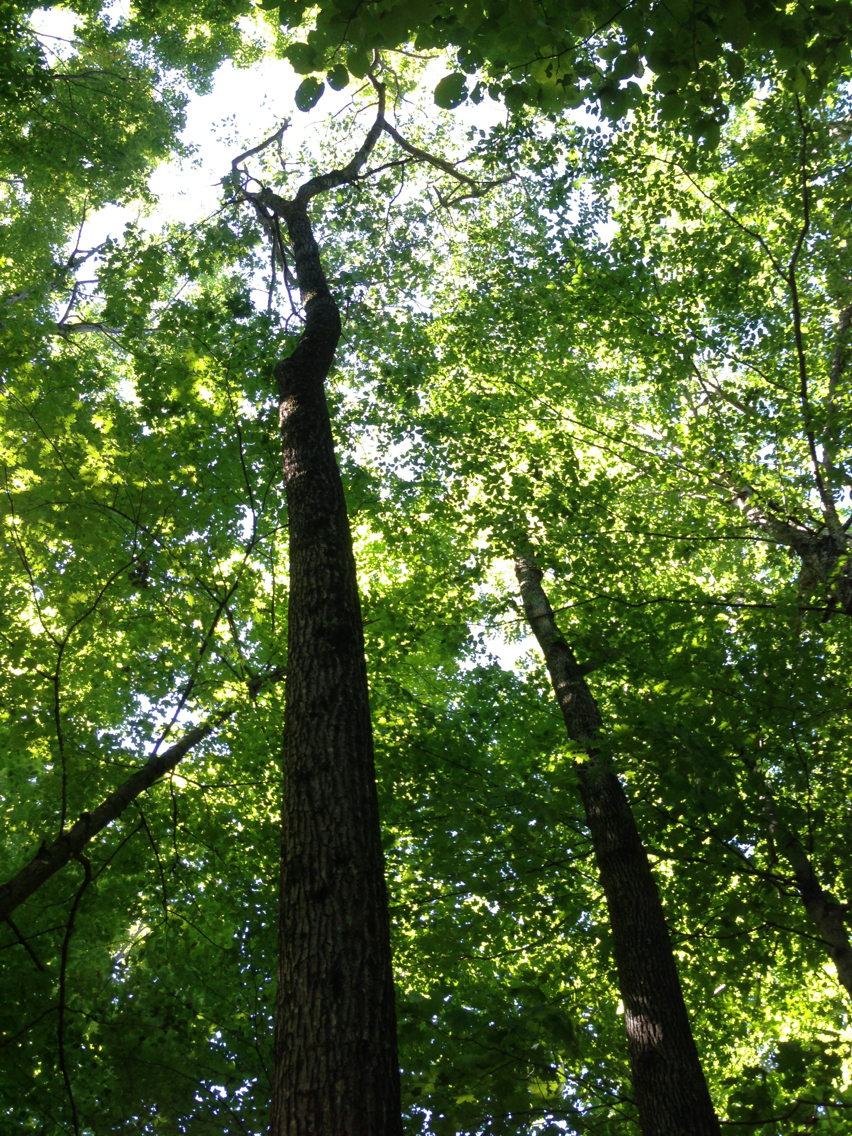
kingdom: Plantae
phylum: Tracheophyta
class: Magnoliopsida
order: Fagales
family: Fagaceae
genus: Quercus
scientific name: Quercus rubra
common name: Red oak
